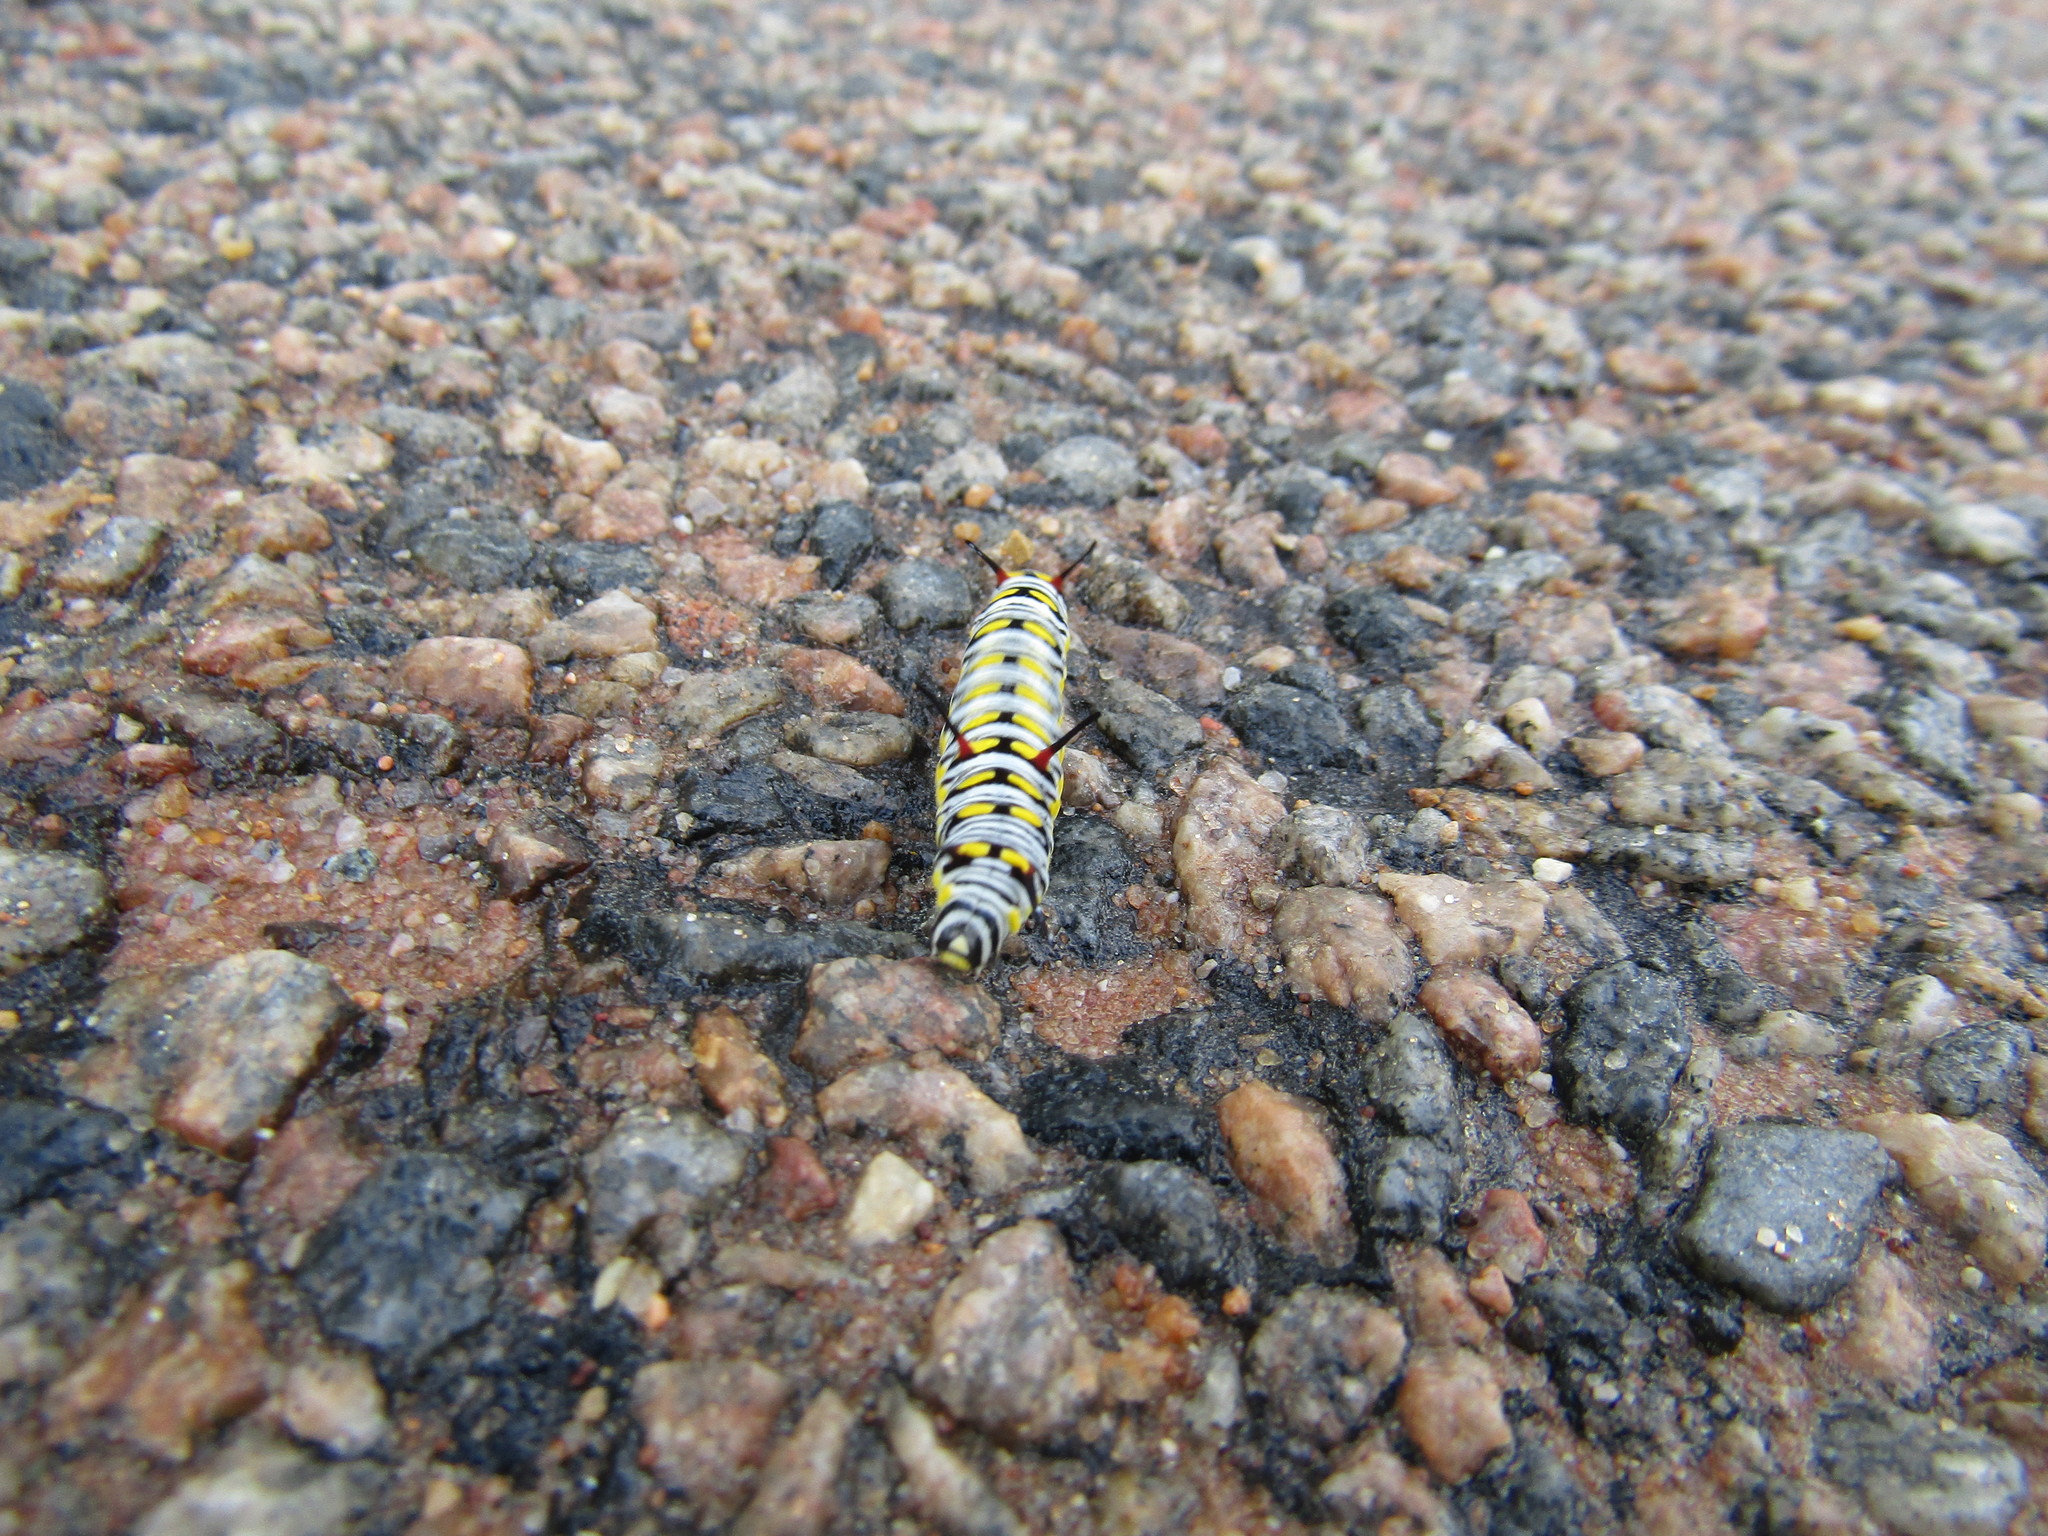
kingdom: Animalia
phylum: Arthropoda
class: Insecta
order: Lepidoptera
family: Nymphalidae
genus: Danaus
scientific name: Danaus chrysippus
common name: Plain tiger
